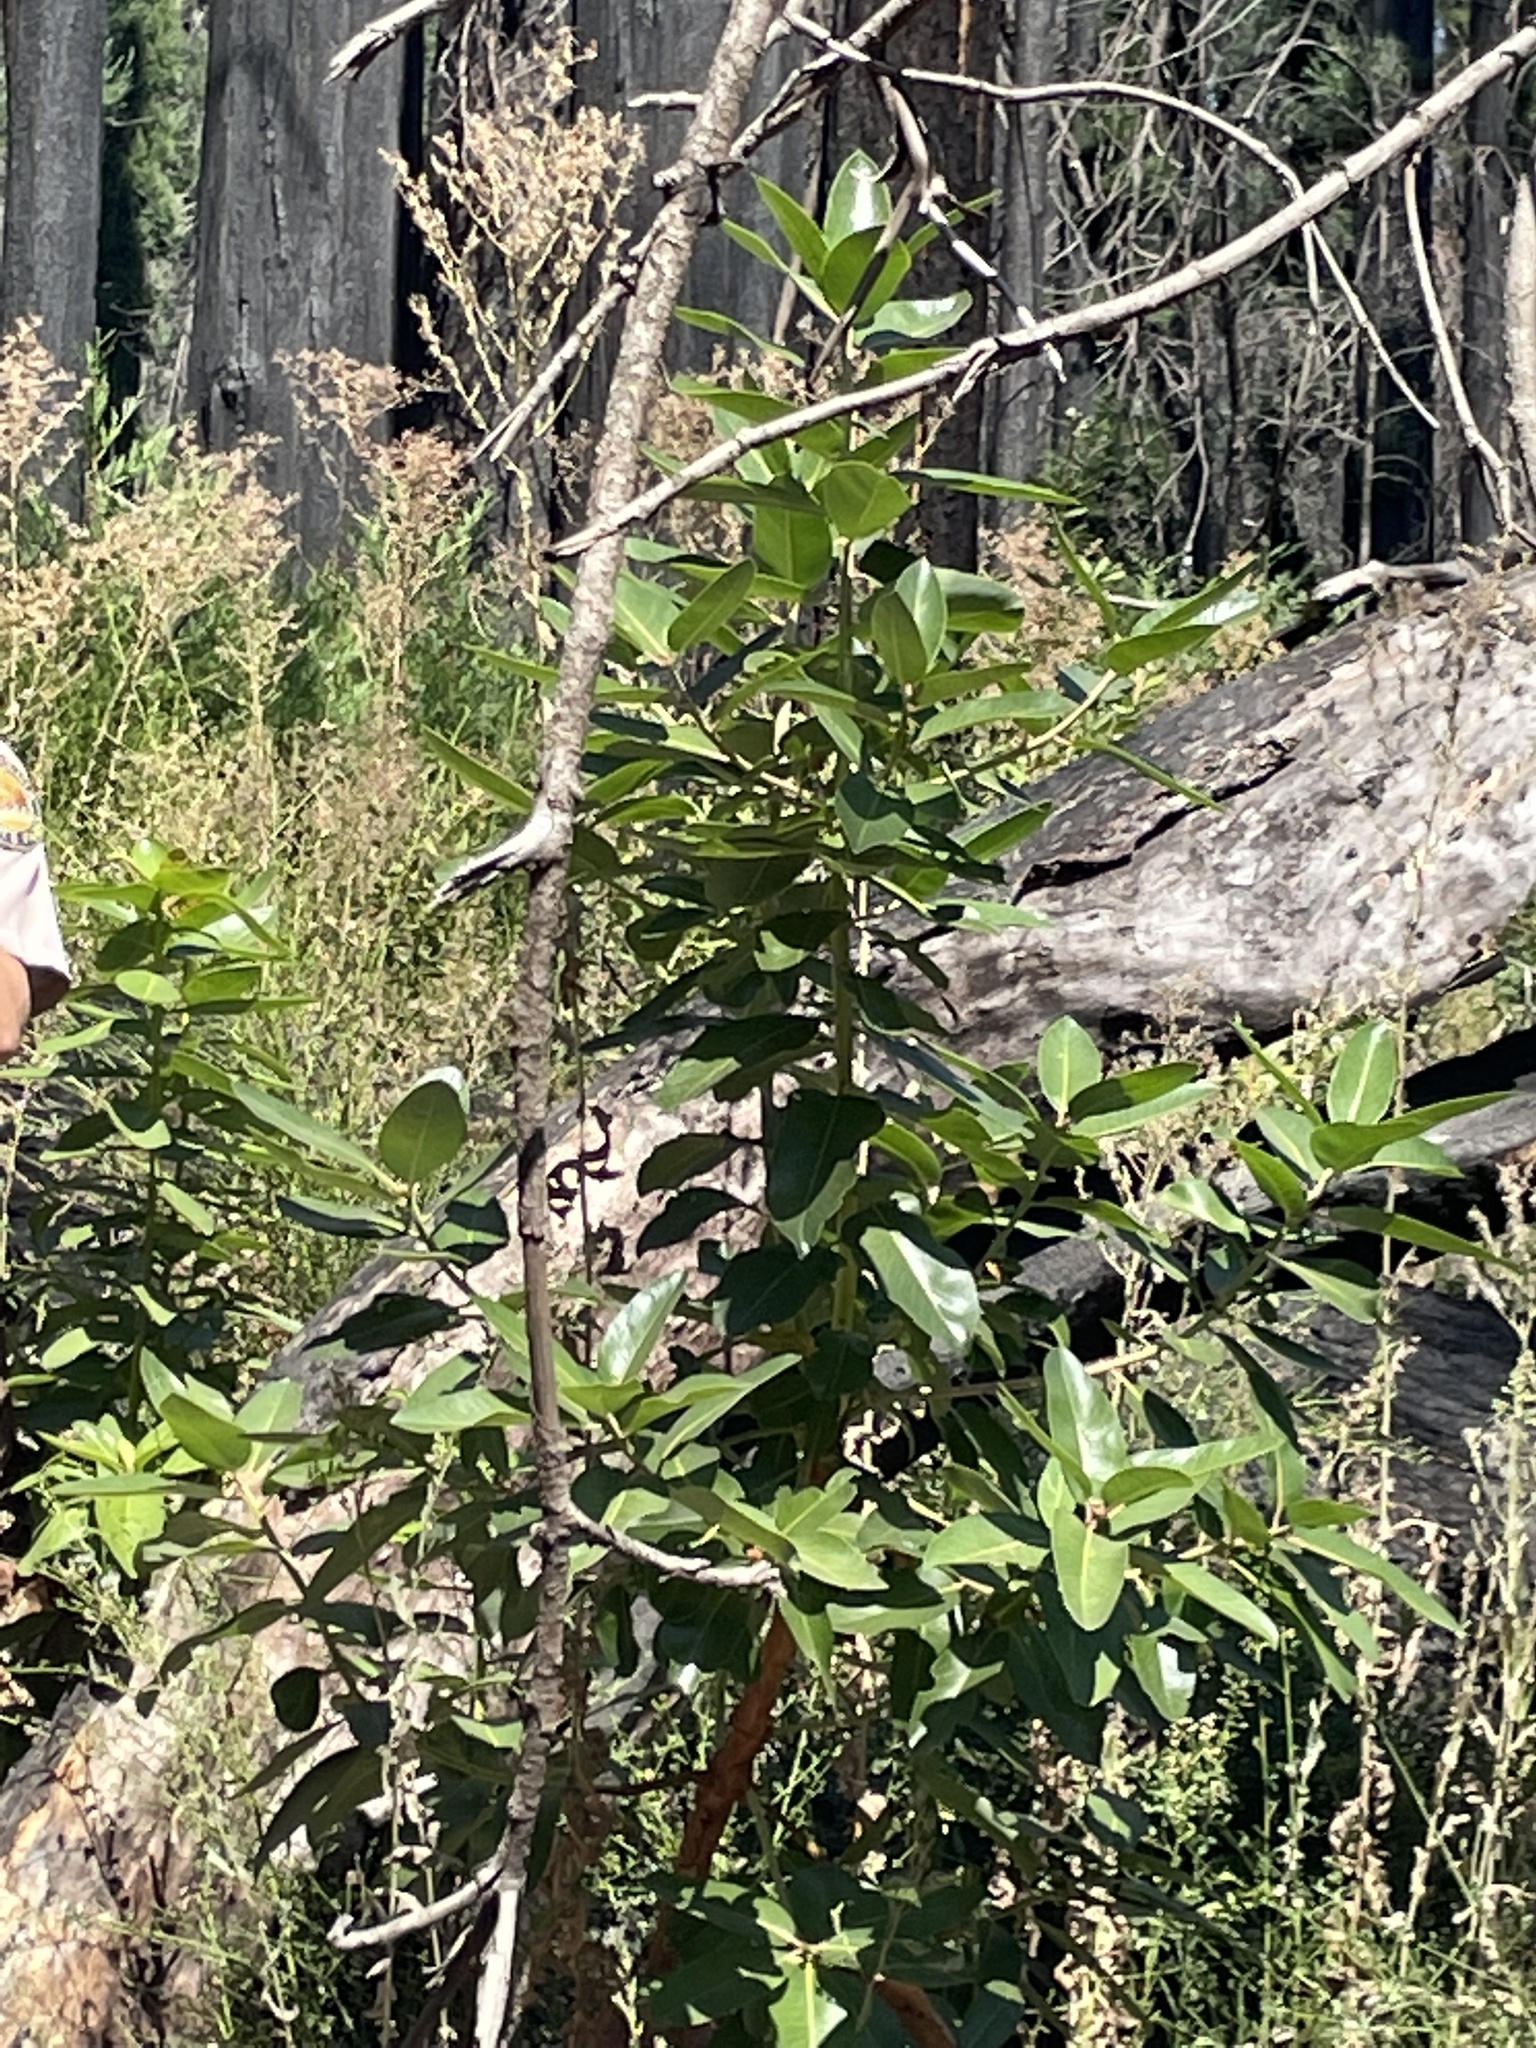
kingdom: Plantae
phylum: Tracheophyta
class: Magnoliopsida
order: Ericales
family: Ericaceae
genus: Arbutus
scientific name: Arbutus menziesii
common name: Pacific madrone
